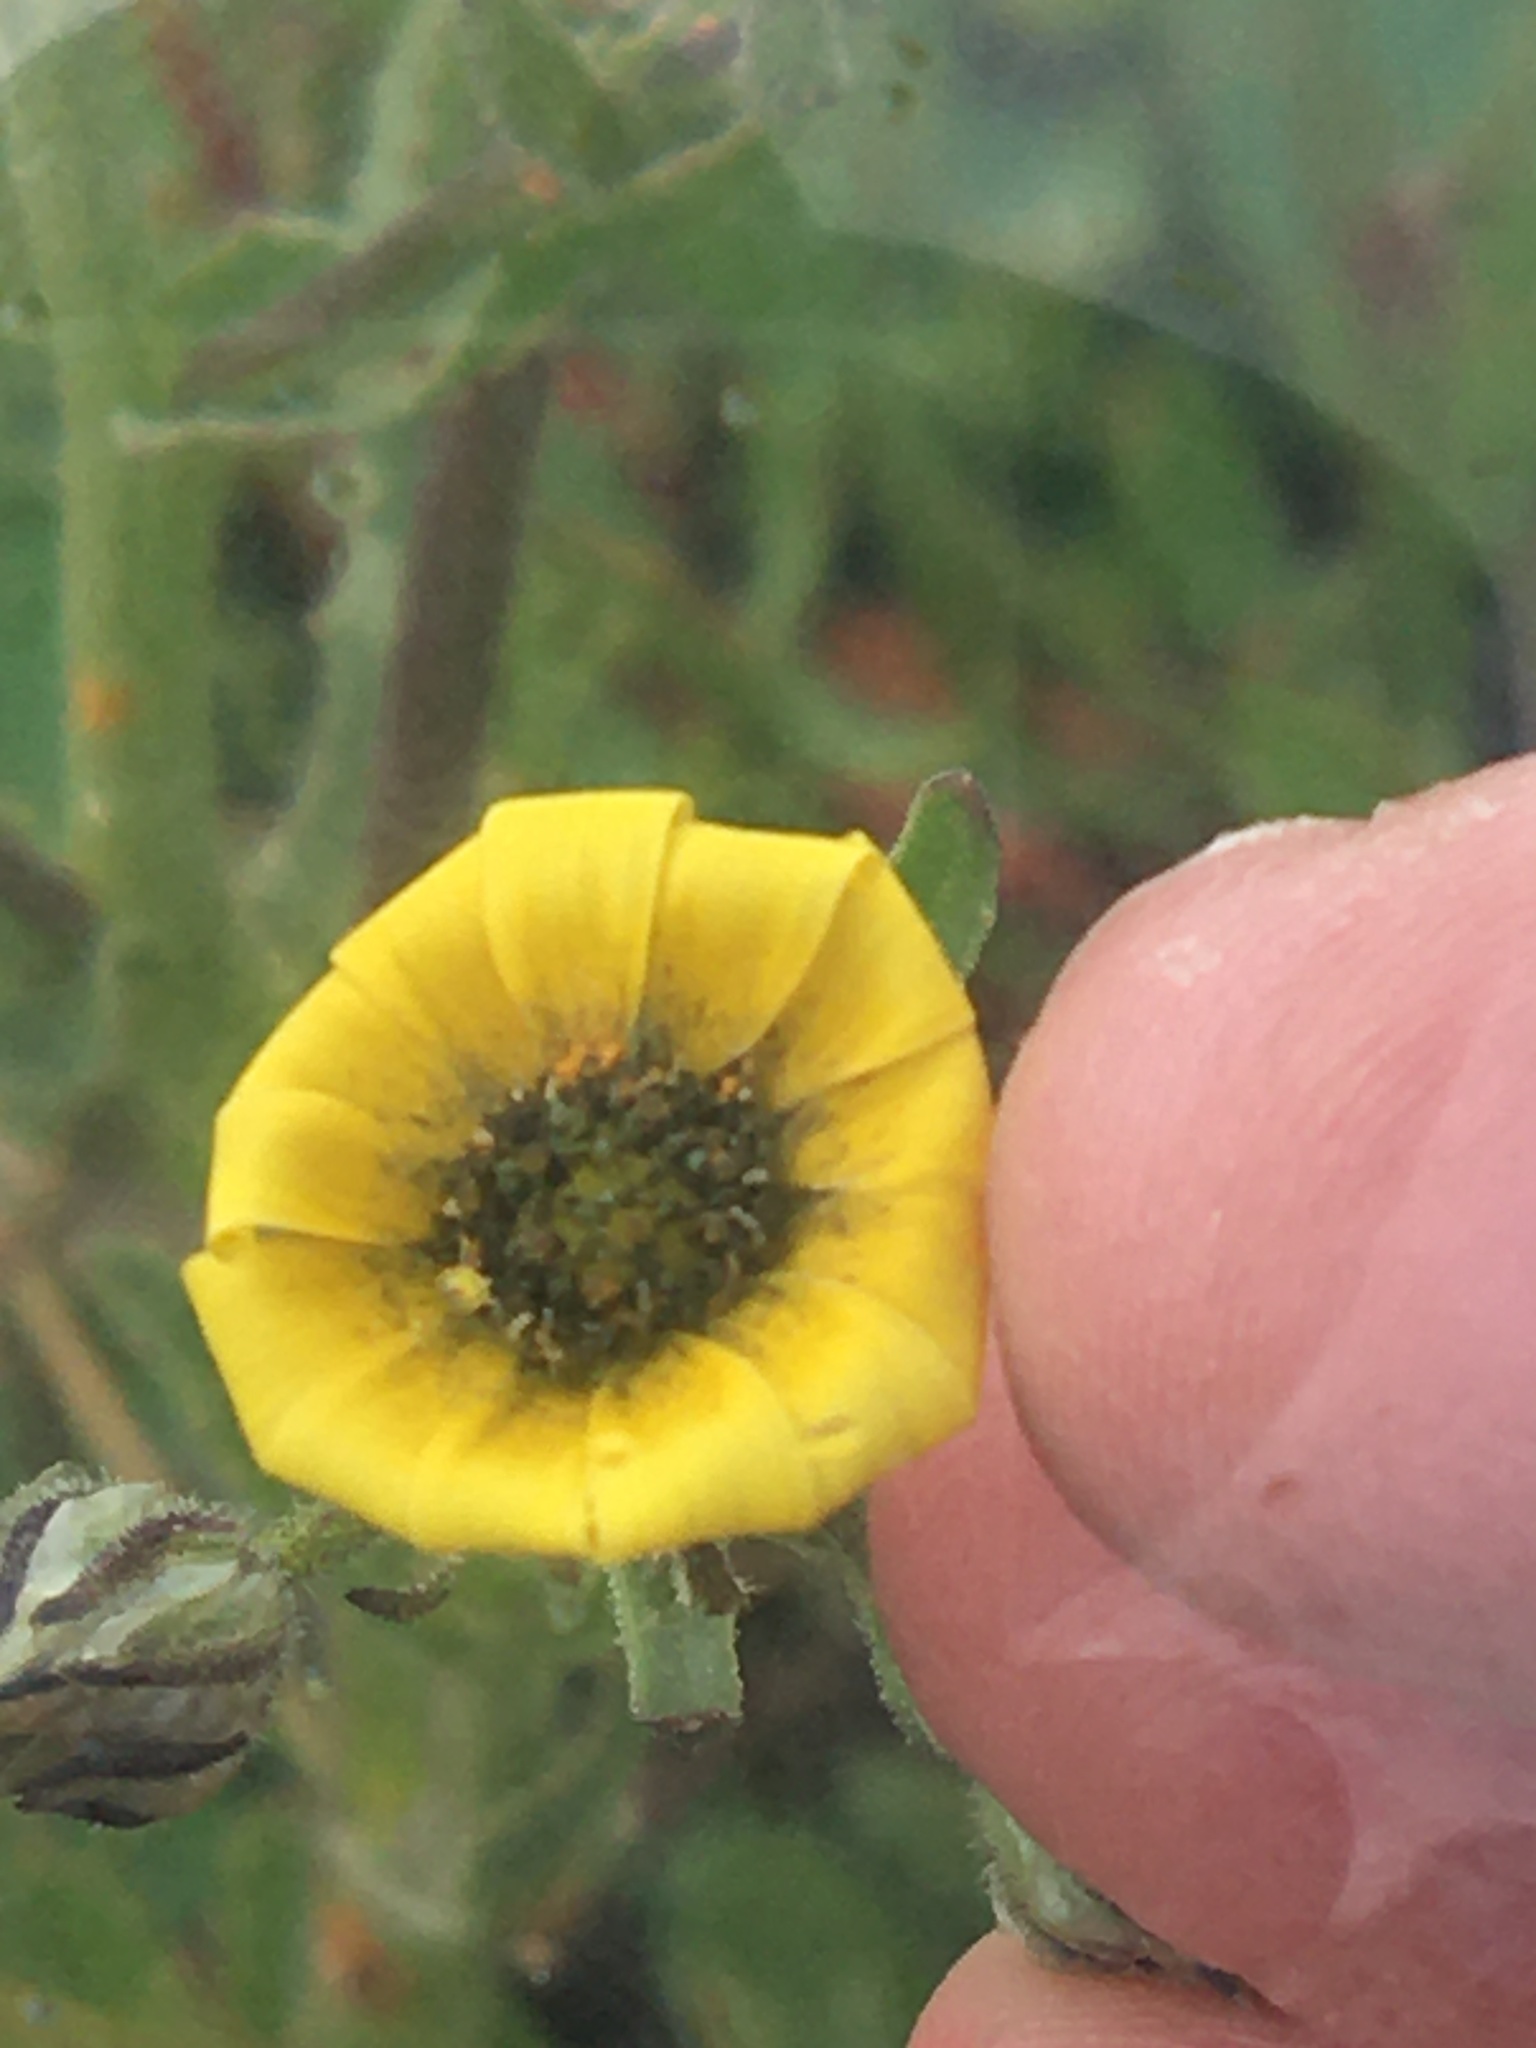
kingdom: Plantae
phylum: Tracheophyta
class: Magnoliopsida
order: Asterales
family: Asteraceae
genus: Osteospermum
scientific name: Osteospermum monstrosum
